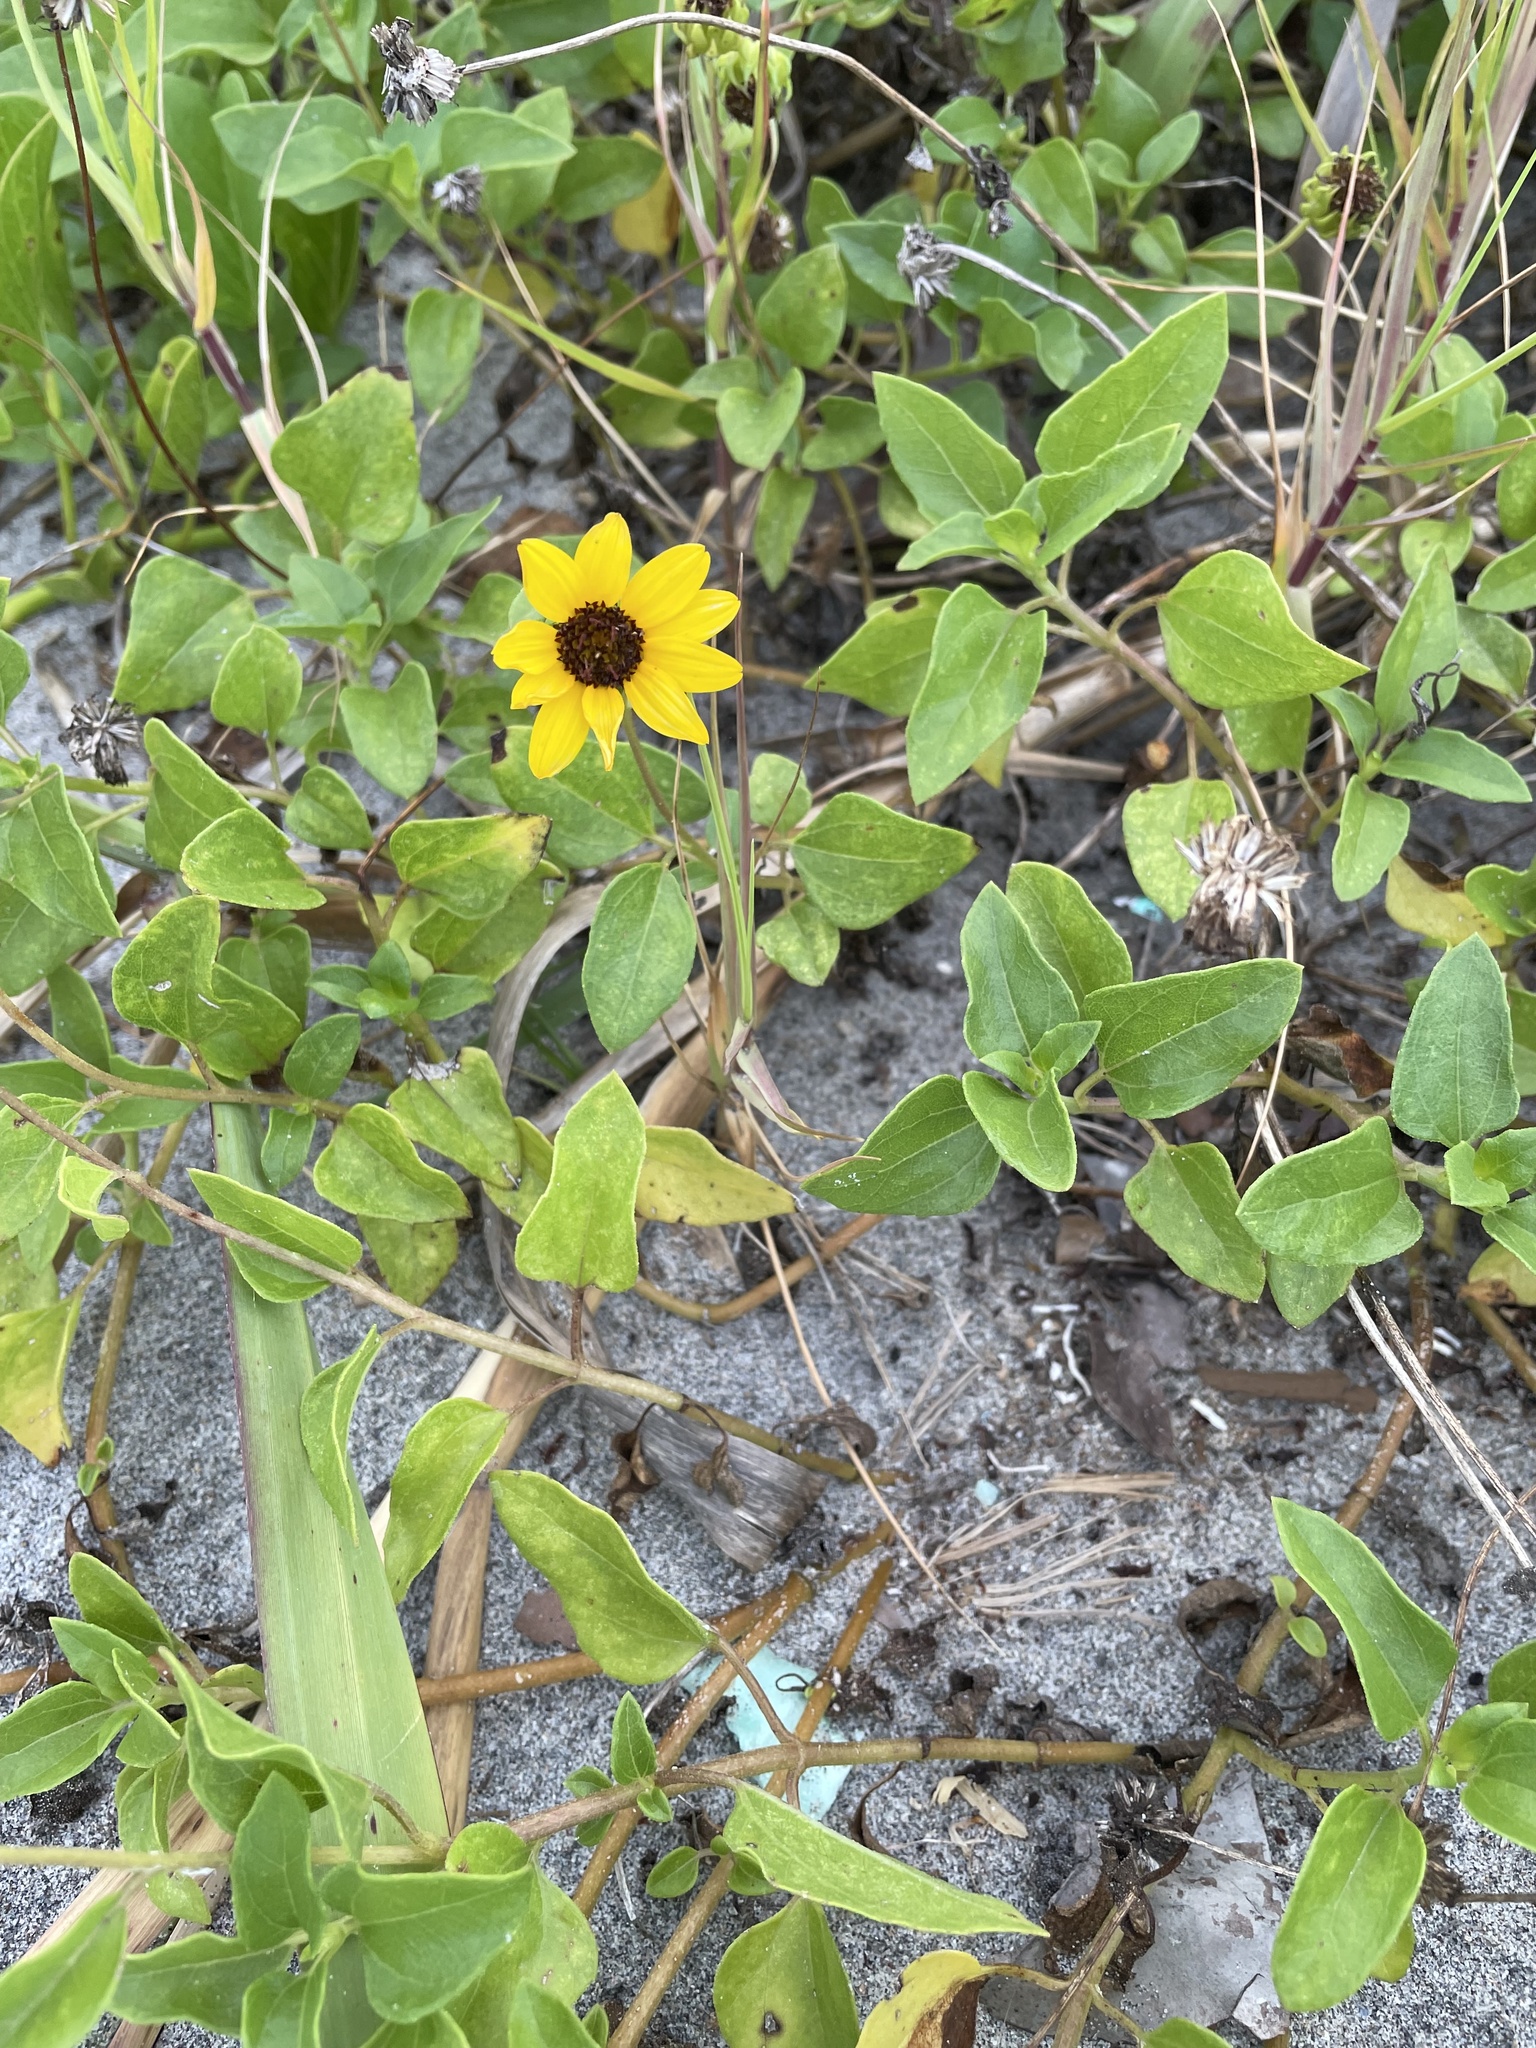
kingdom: Plantae
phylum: Tracheophyta
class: Magnoliopsida
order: Asterales
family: Asteraceae
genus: Helianthus
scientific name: Helianthus debilis
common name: Weak sunflower
